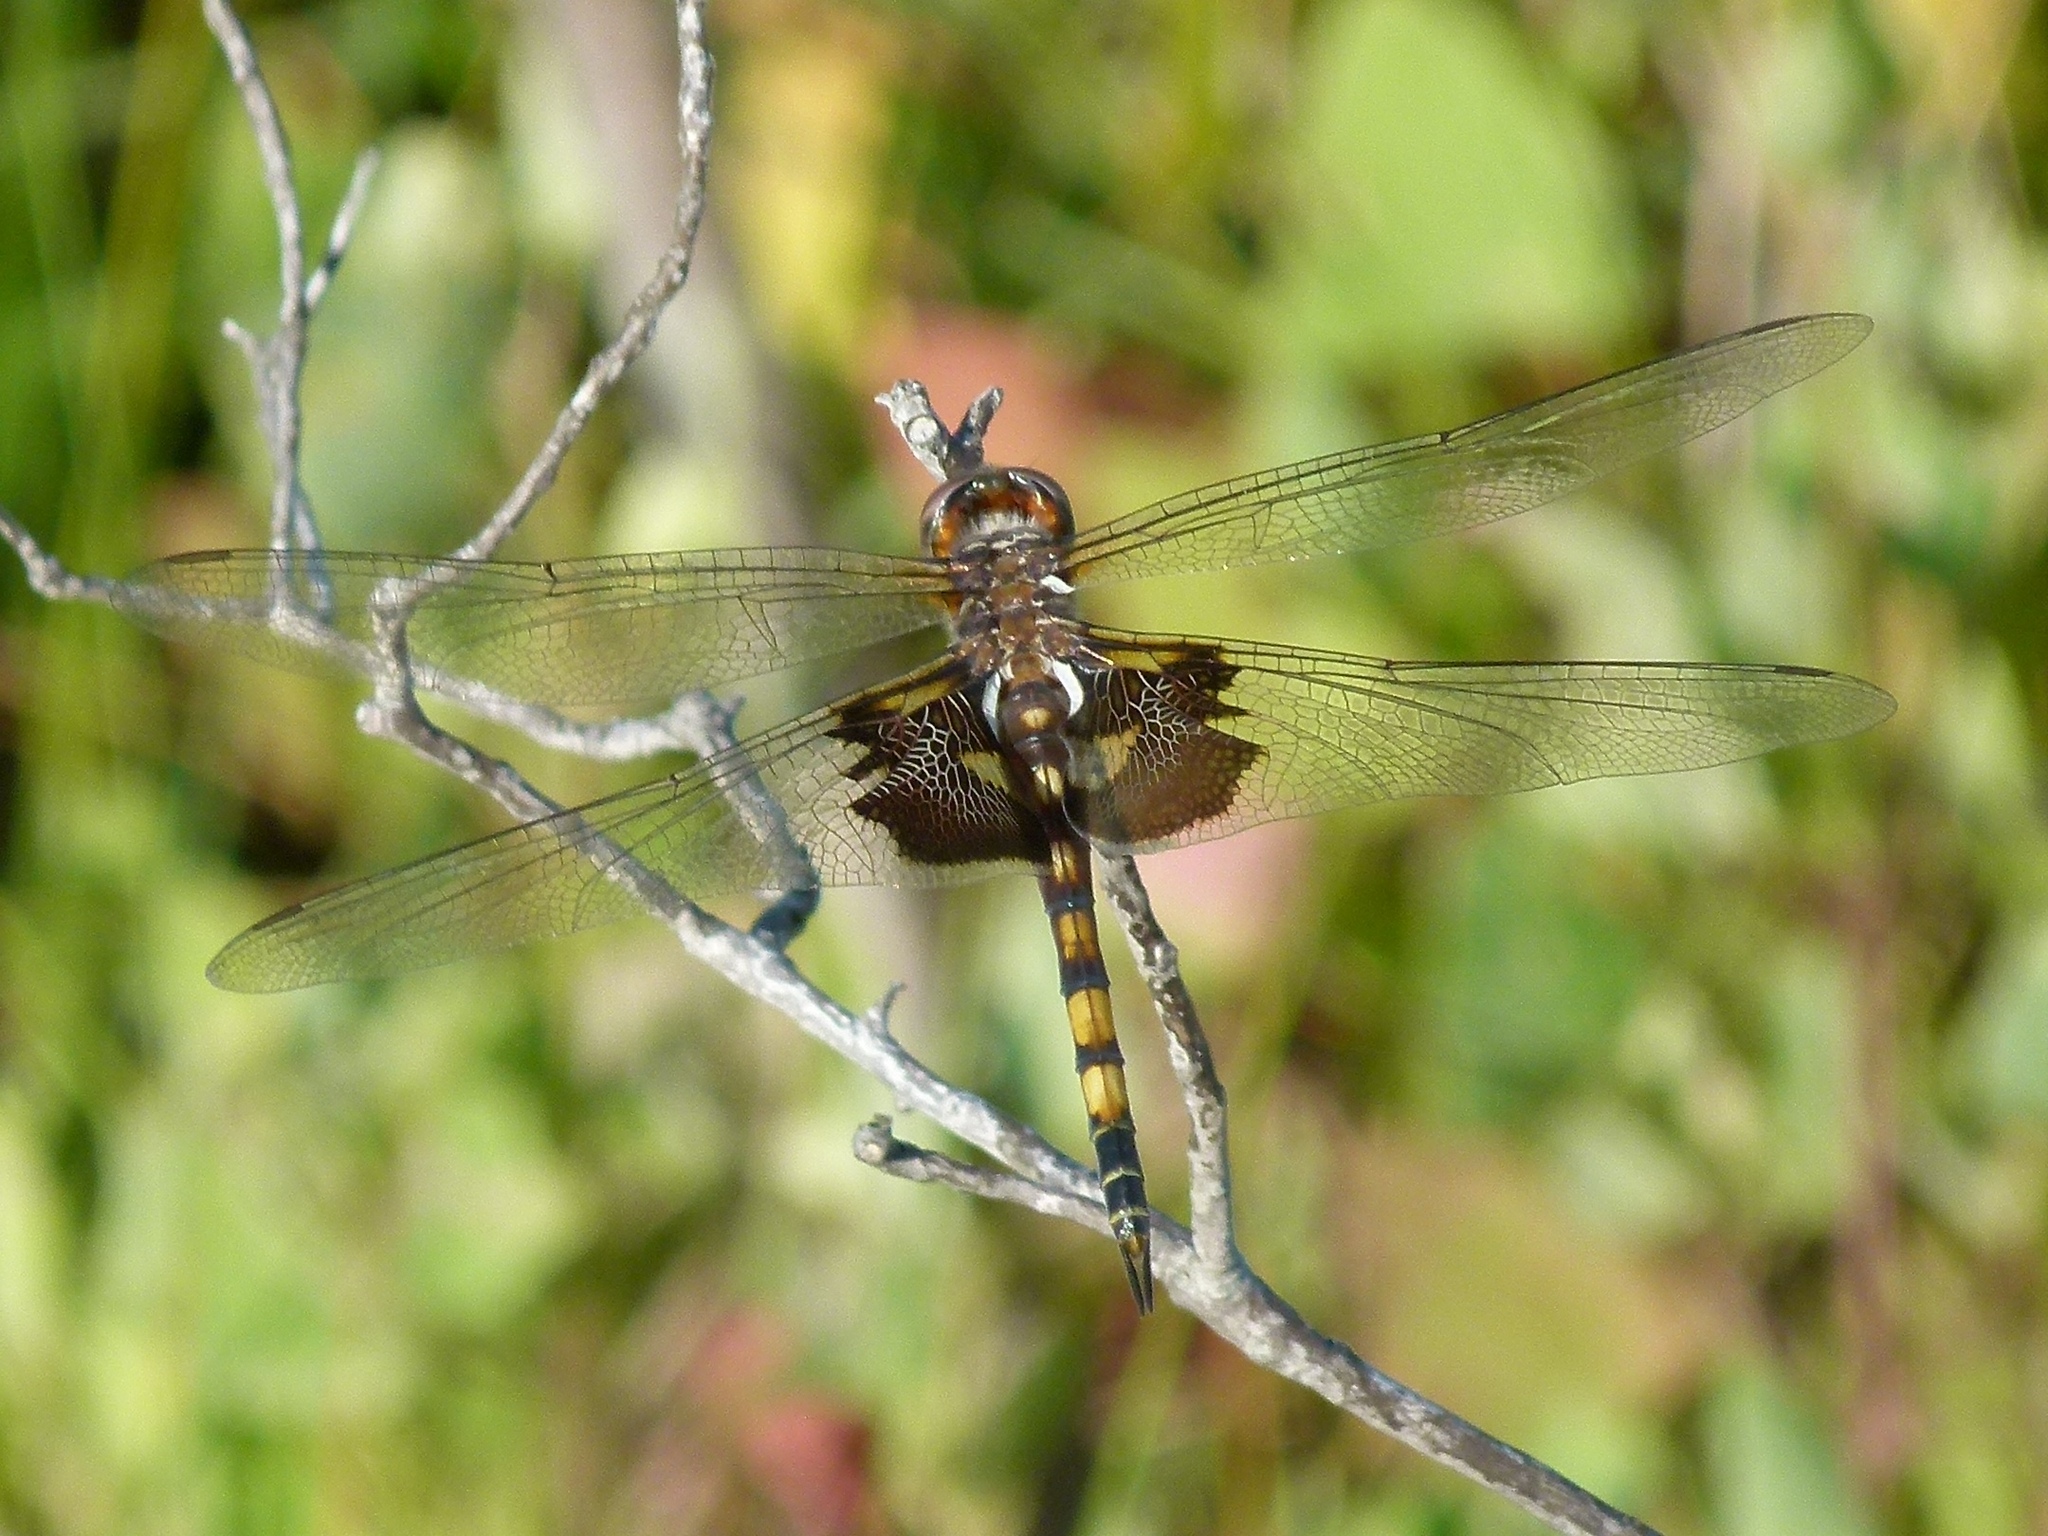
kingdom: Animalia
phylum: Arthropoda
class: Insecta
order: Odonata
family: Libellulidae
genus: Tramea
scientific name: Tramea lacerata
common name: Black saddlebags
